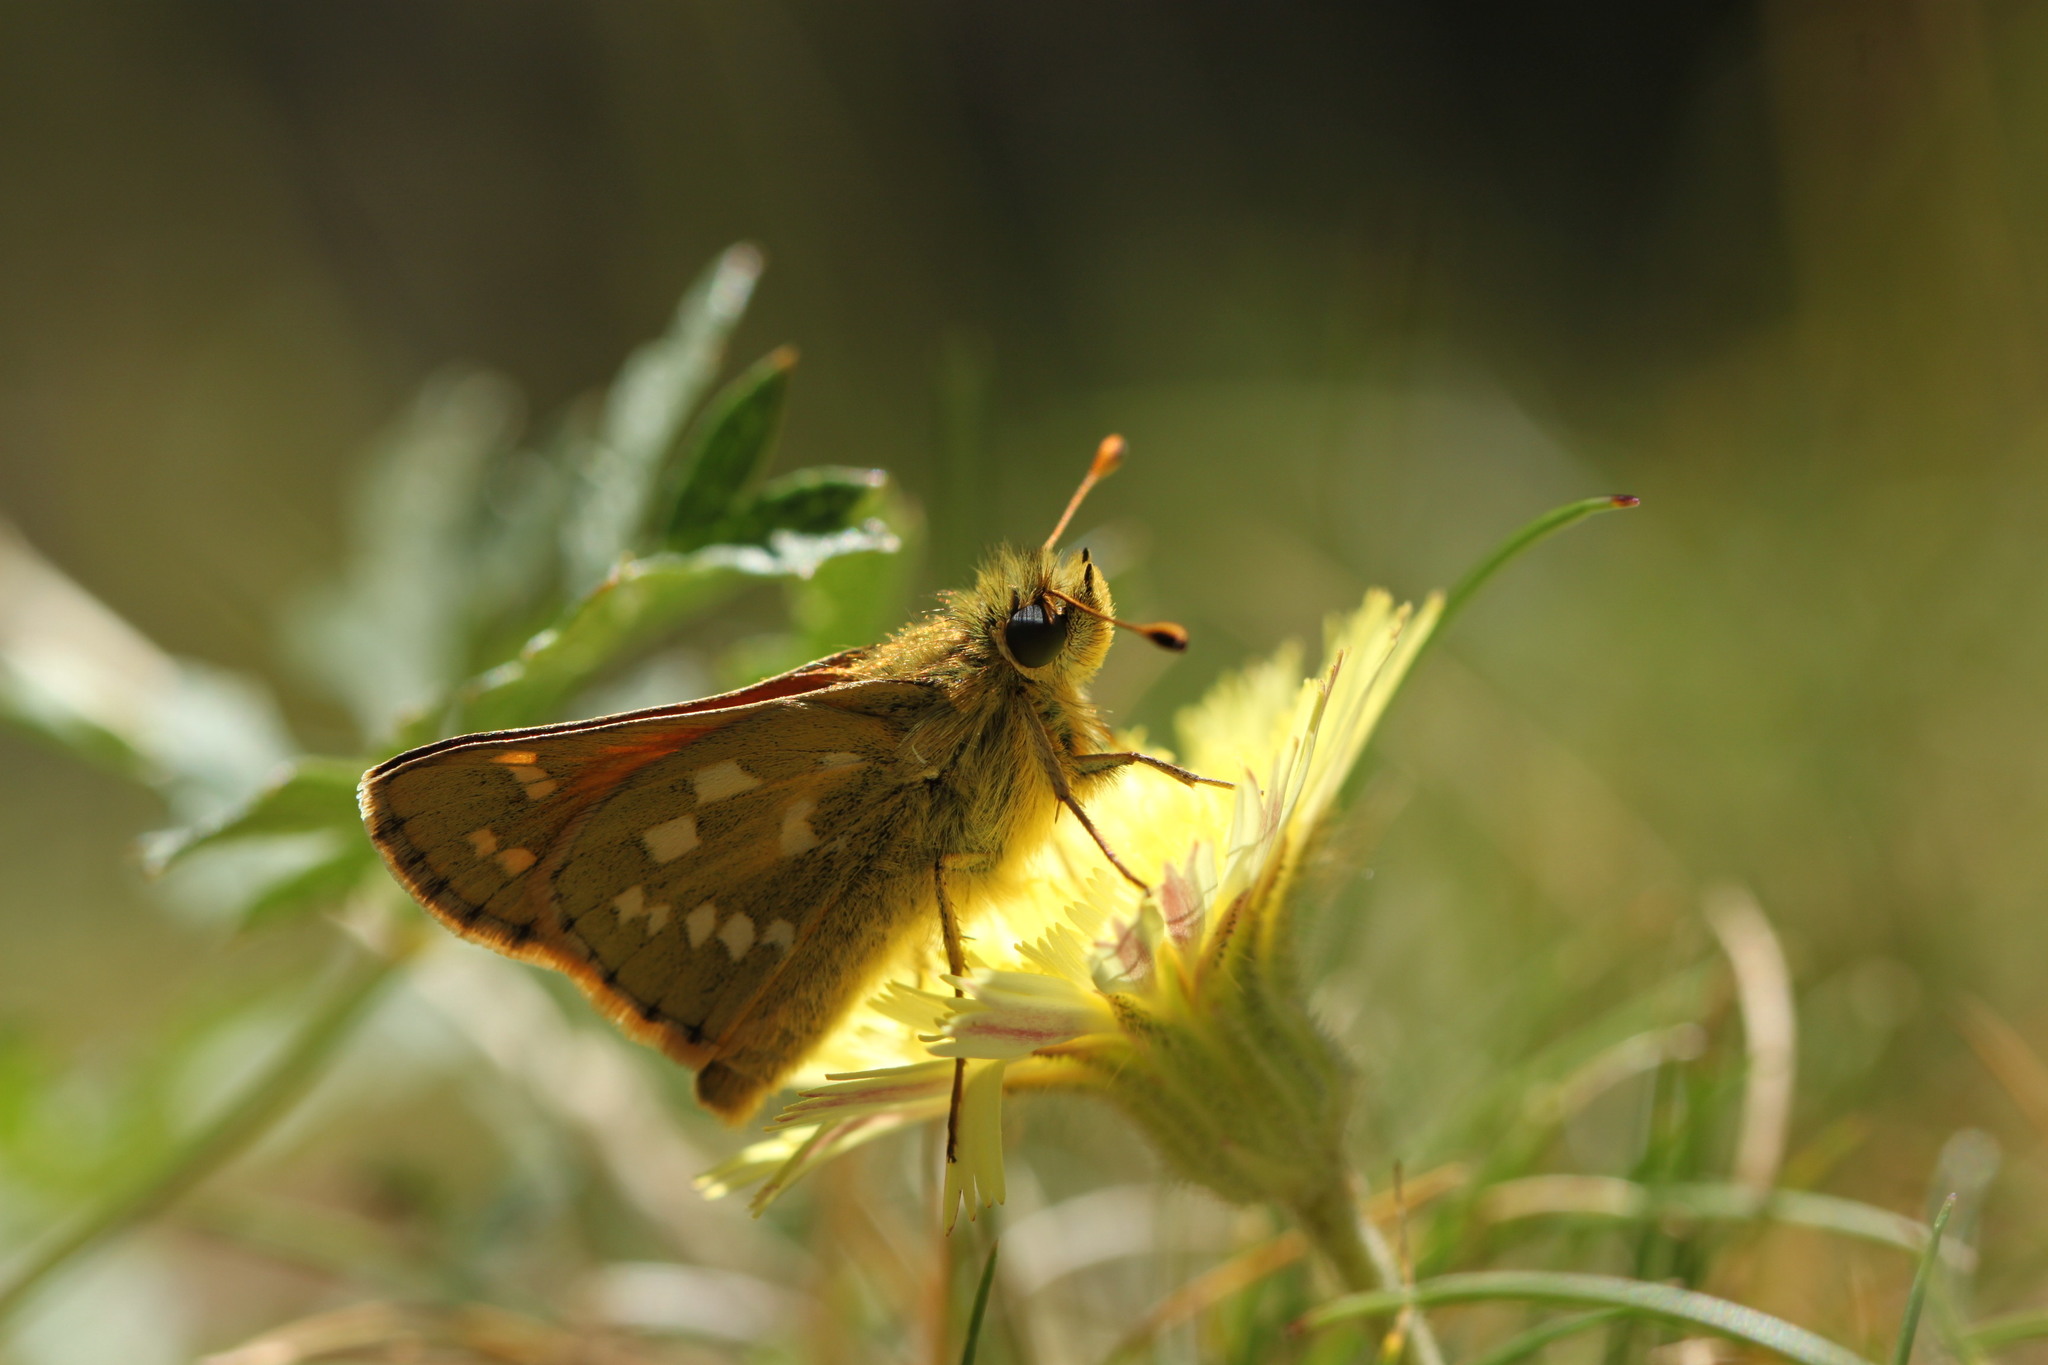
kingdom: Animalia
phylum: Arthropoda
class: Insecta
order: Lepidoptera
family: Hesperiidae
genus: Hesperia
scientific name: Hesperia comma
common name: Common branded skipper
